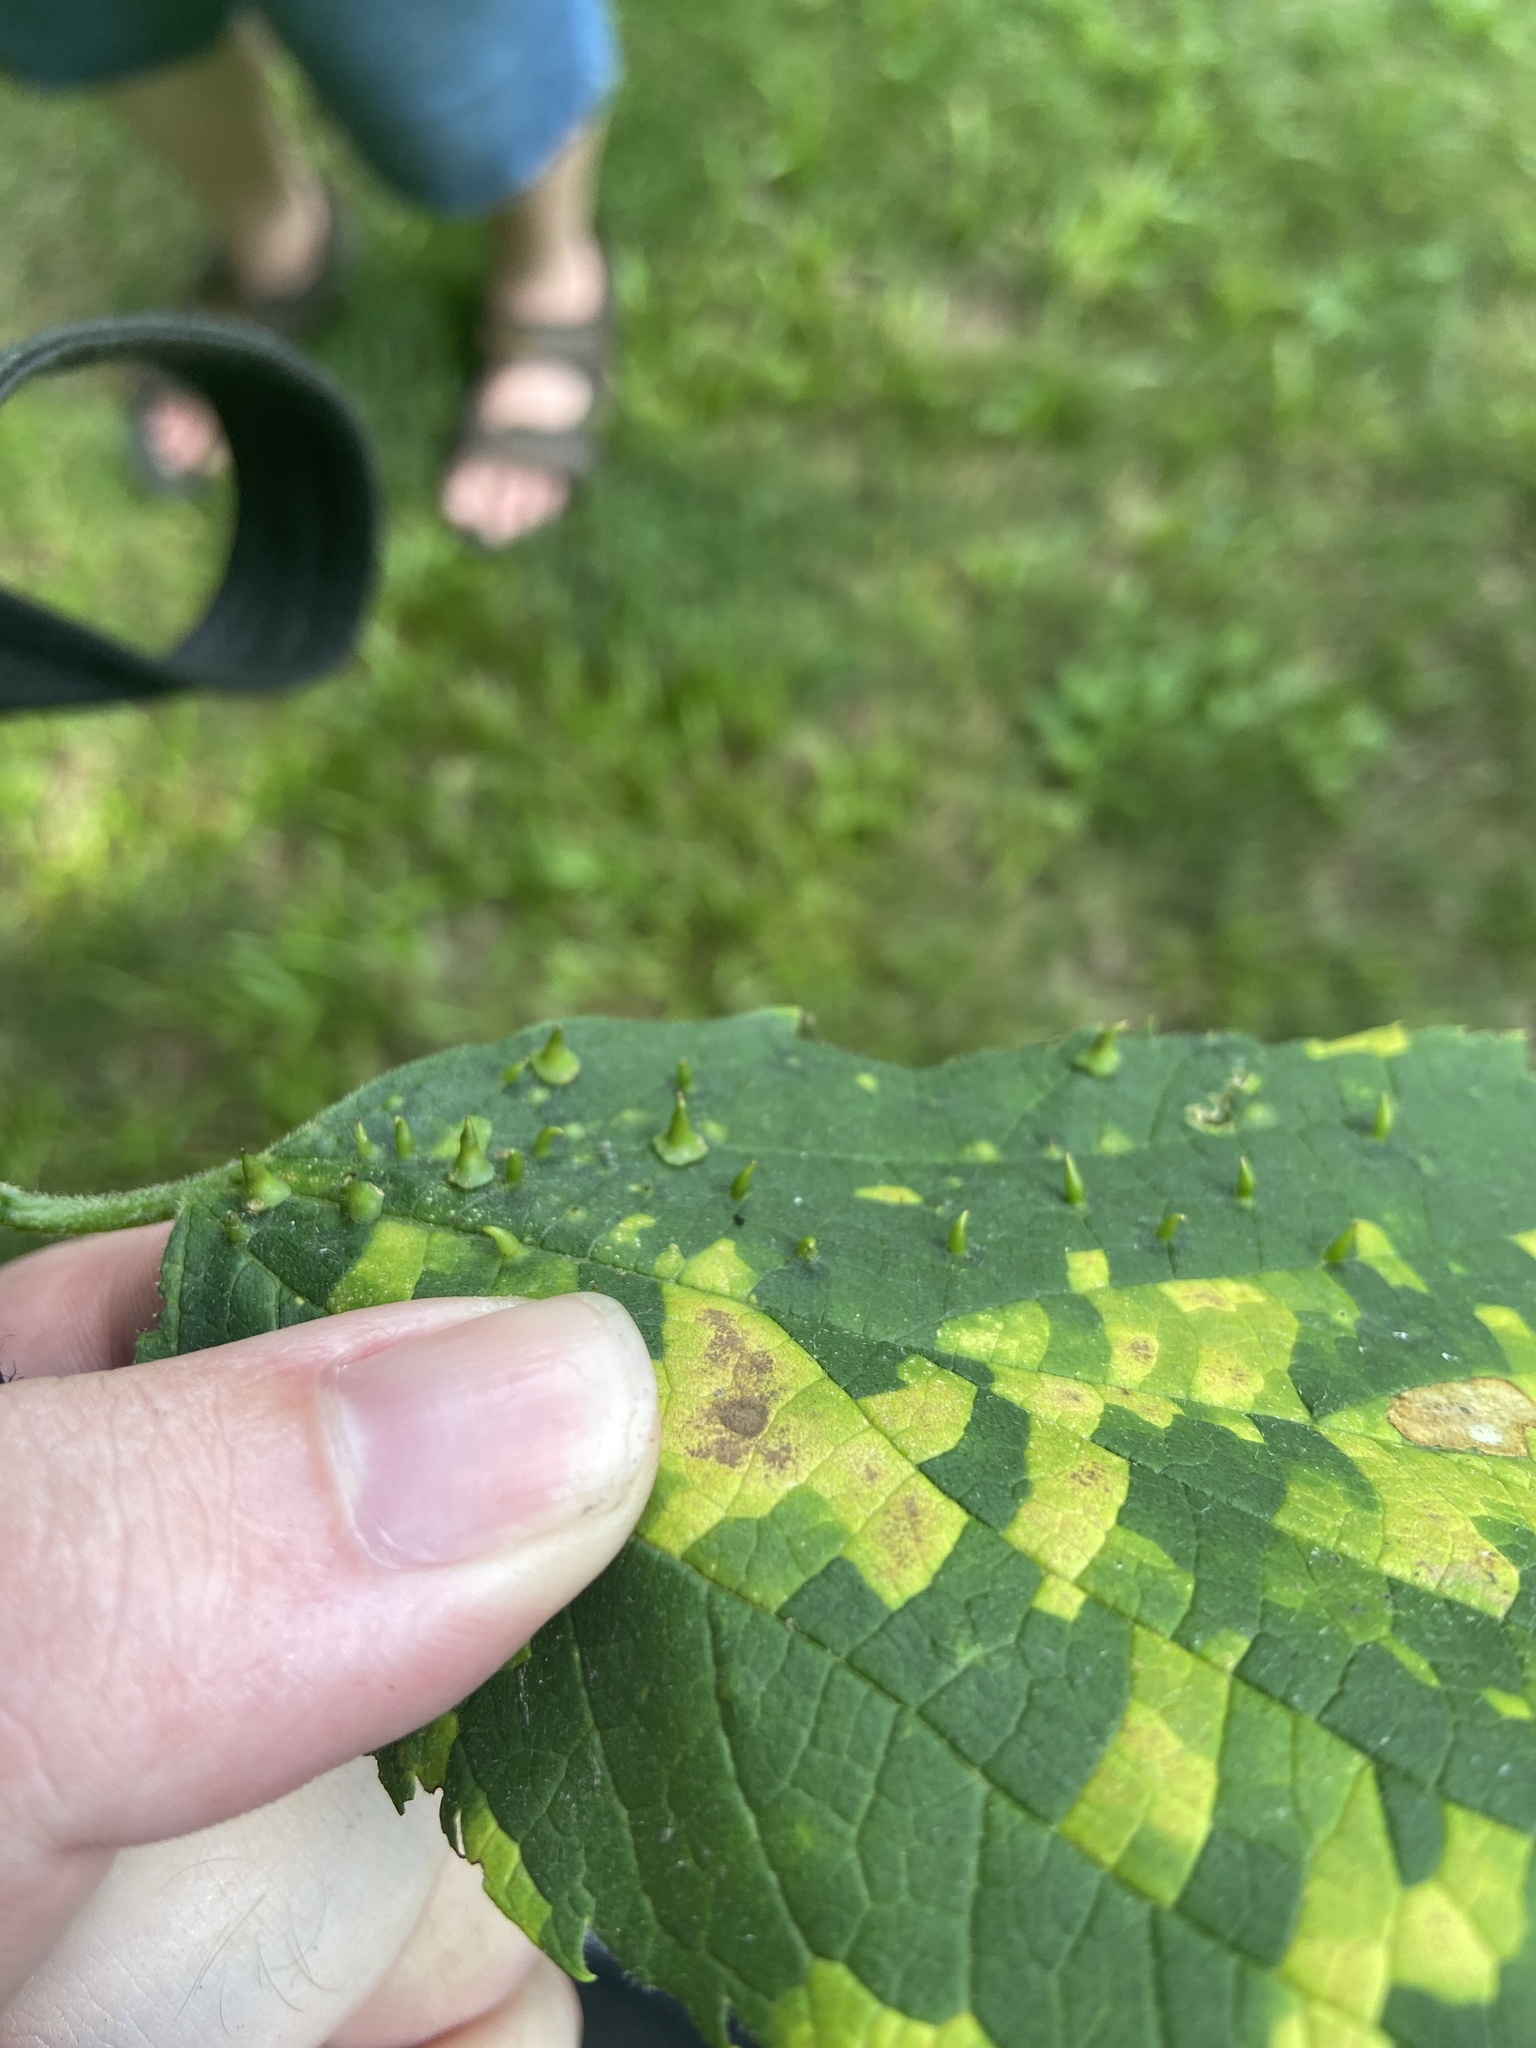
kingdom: Animalia
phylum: Arthropoda
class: Insecta
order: Diptera
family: Cecidomyiidae
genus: Celticecis
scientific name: Celticecis spiniformis
